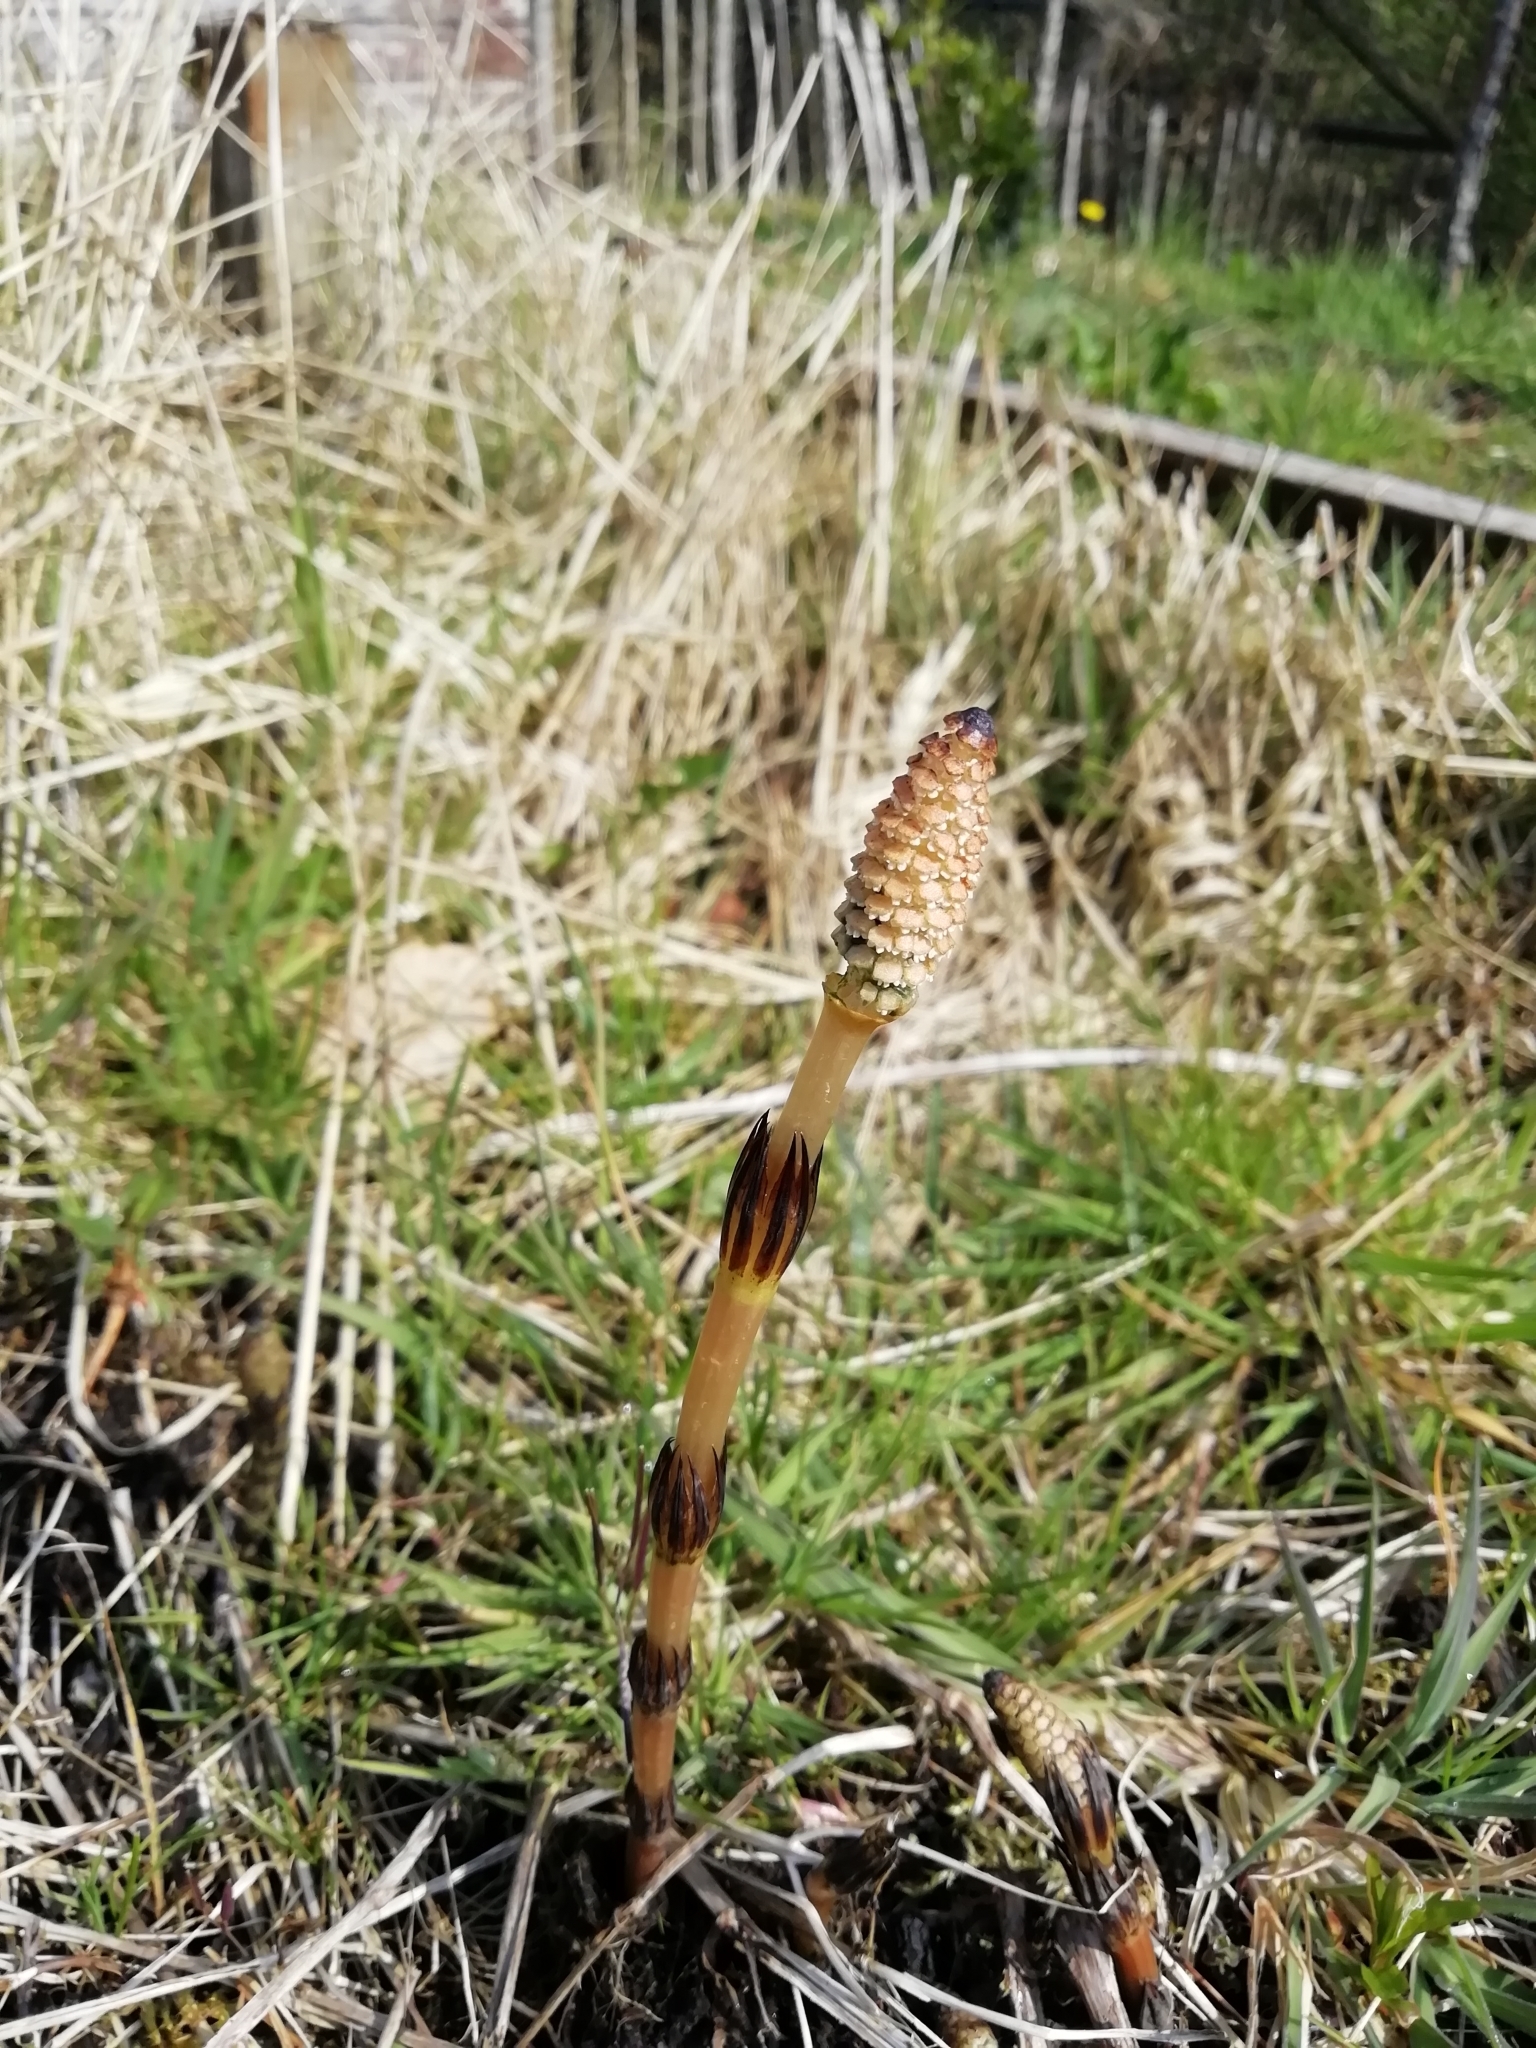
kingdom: Plantae
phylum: Tracheophyta
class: Polypodiopsida
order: Equisetales
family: Equisetaceae
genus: Equisetum
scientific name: Equisetum arvense
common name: Field horsetail
